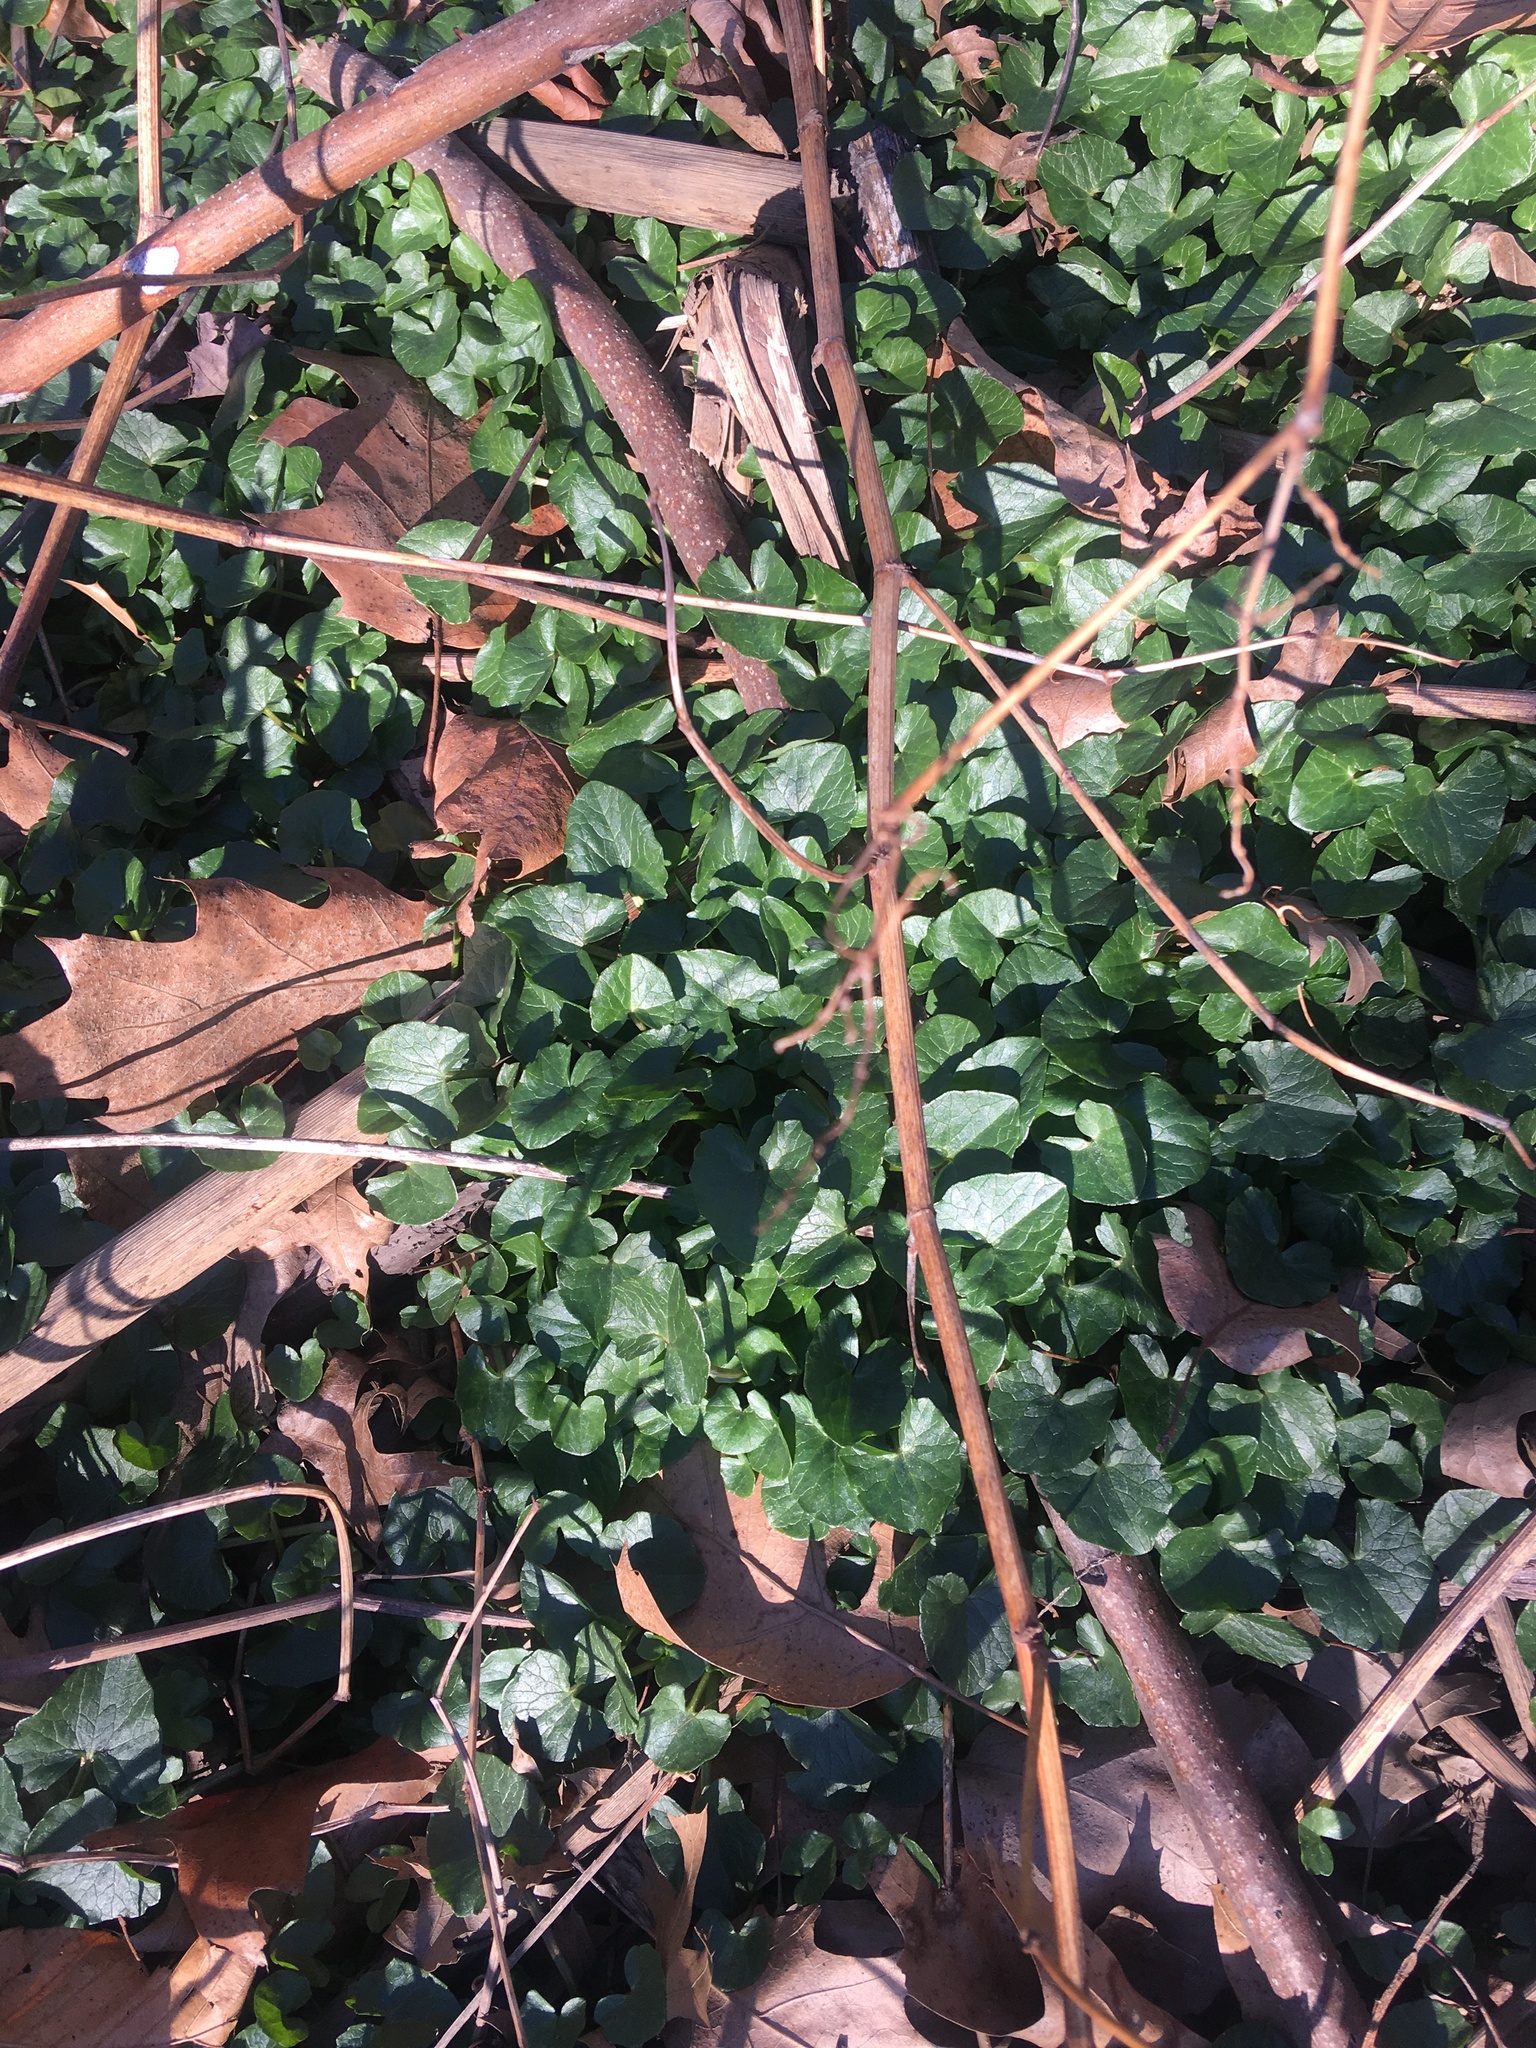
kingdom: Plantae
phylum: Tracheophyta
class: Magnoliopsida
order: Ranunculales
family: Ranunculaceae
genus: Ficaria
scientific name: Ficaria verna
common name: Lesser celandine
